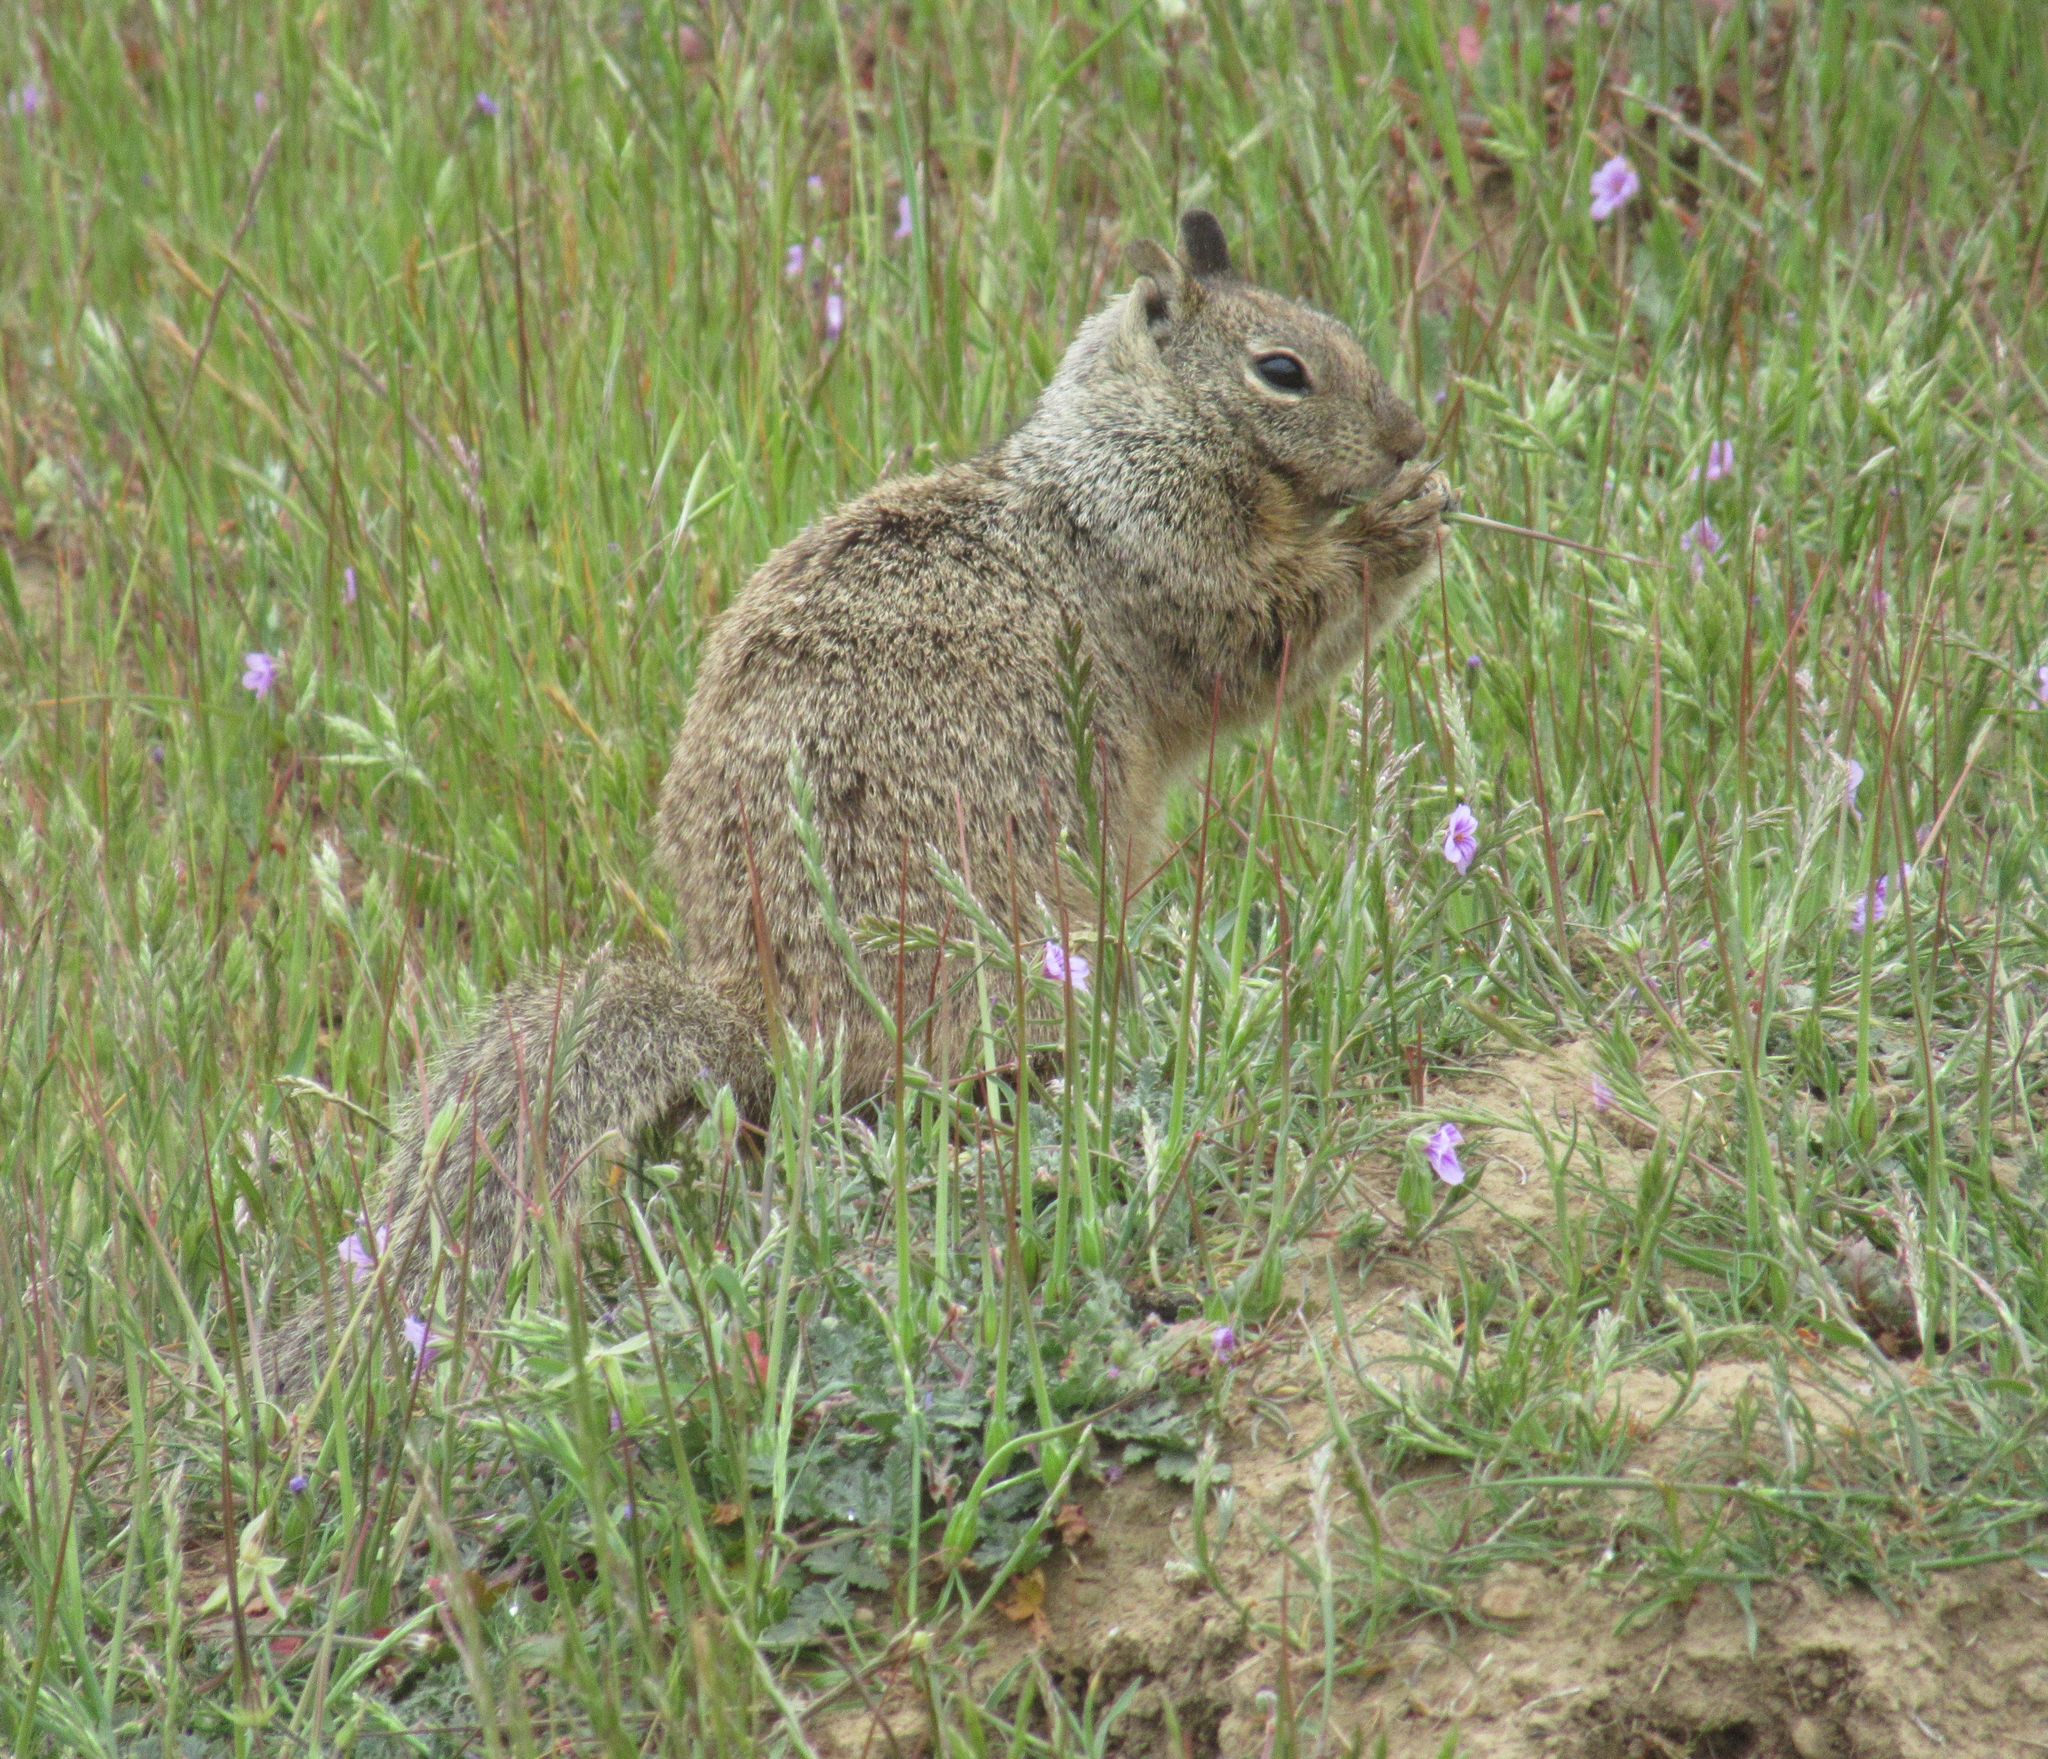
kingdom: Animalia
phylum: Chordata
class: Mammalia
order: Rodentia
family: Sciuridae
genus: Otospermophilus
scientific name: Otospermophilus beecheyi
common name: California ground squirrel
